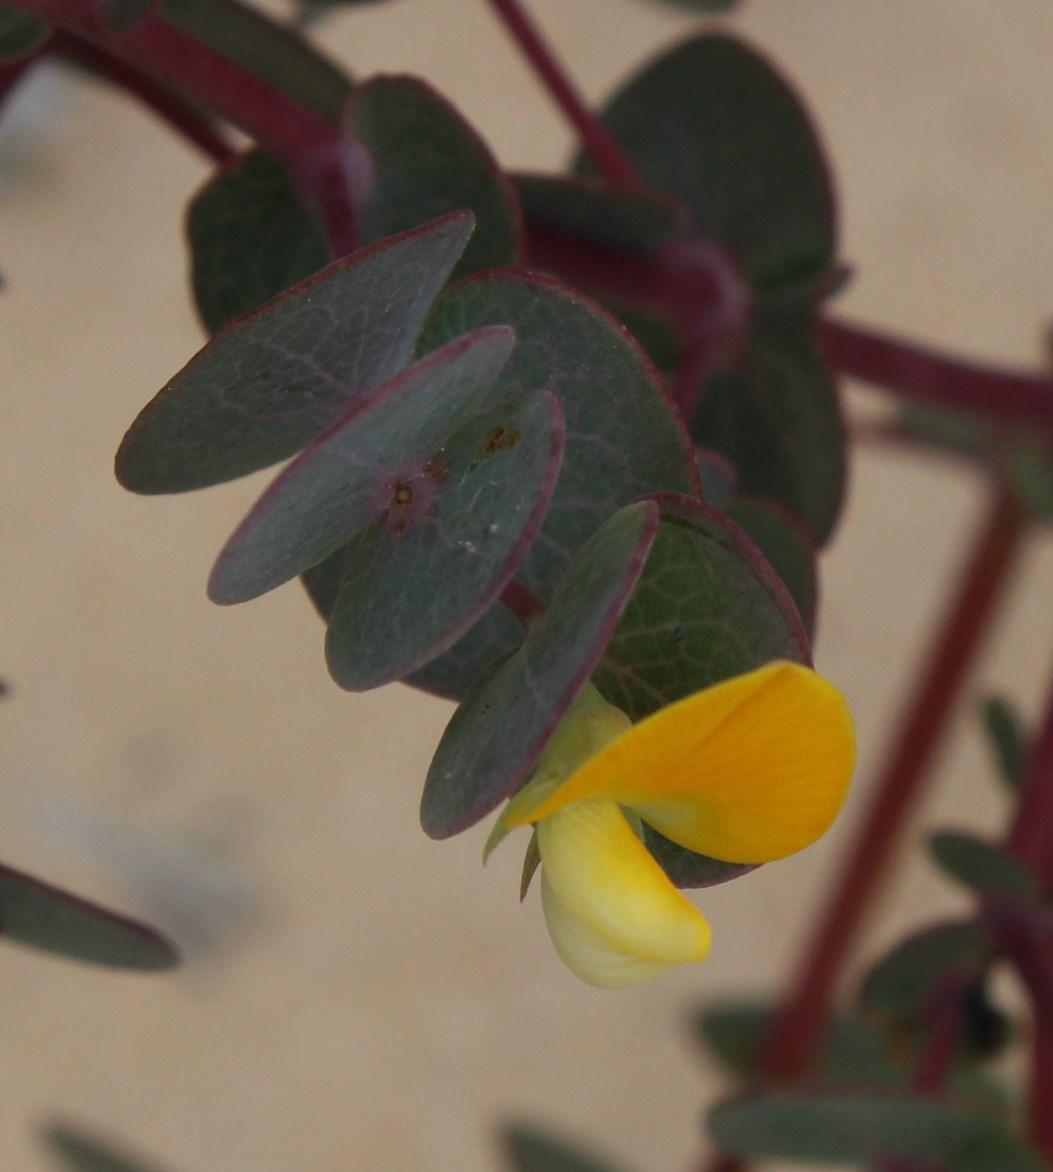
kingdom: Plantae
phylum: Tracheophyta
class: Magnoliopsida
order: Fabales
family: Fabaceae
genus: Rafnia
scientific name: Rafnia acuminata
